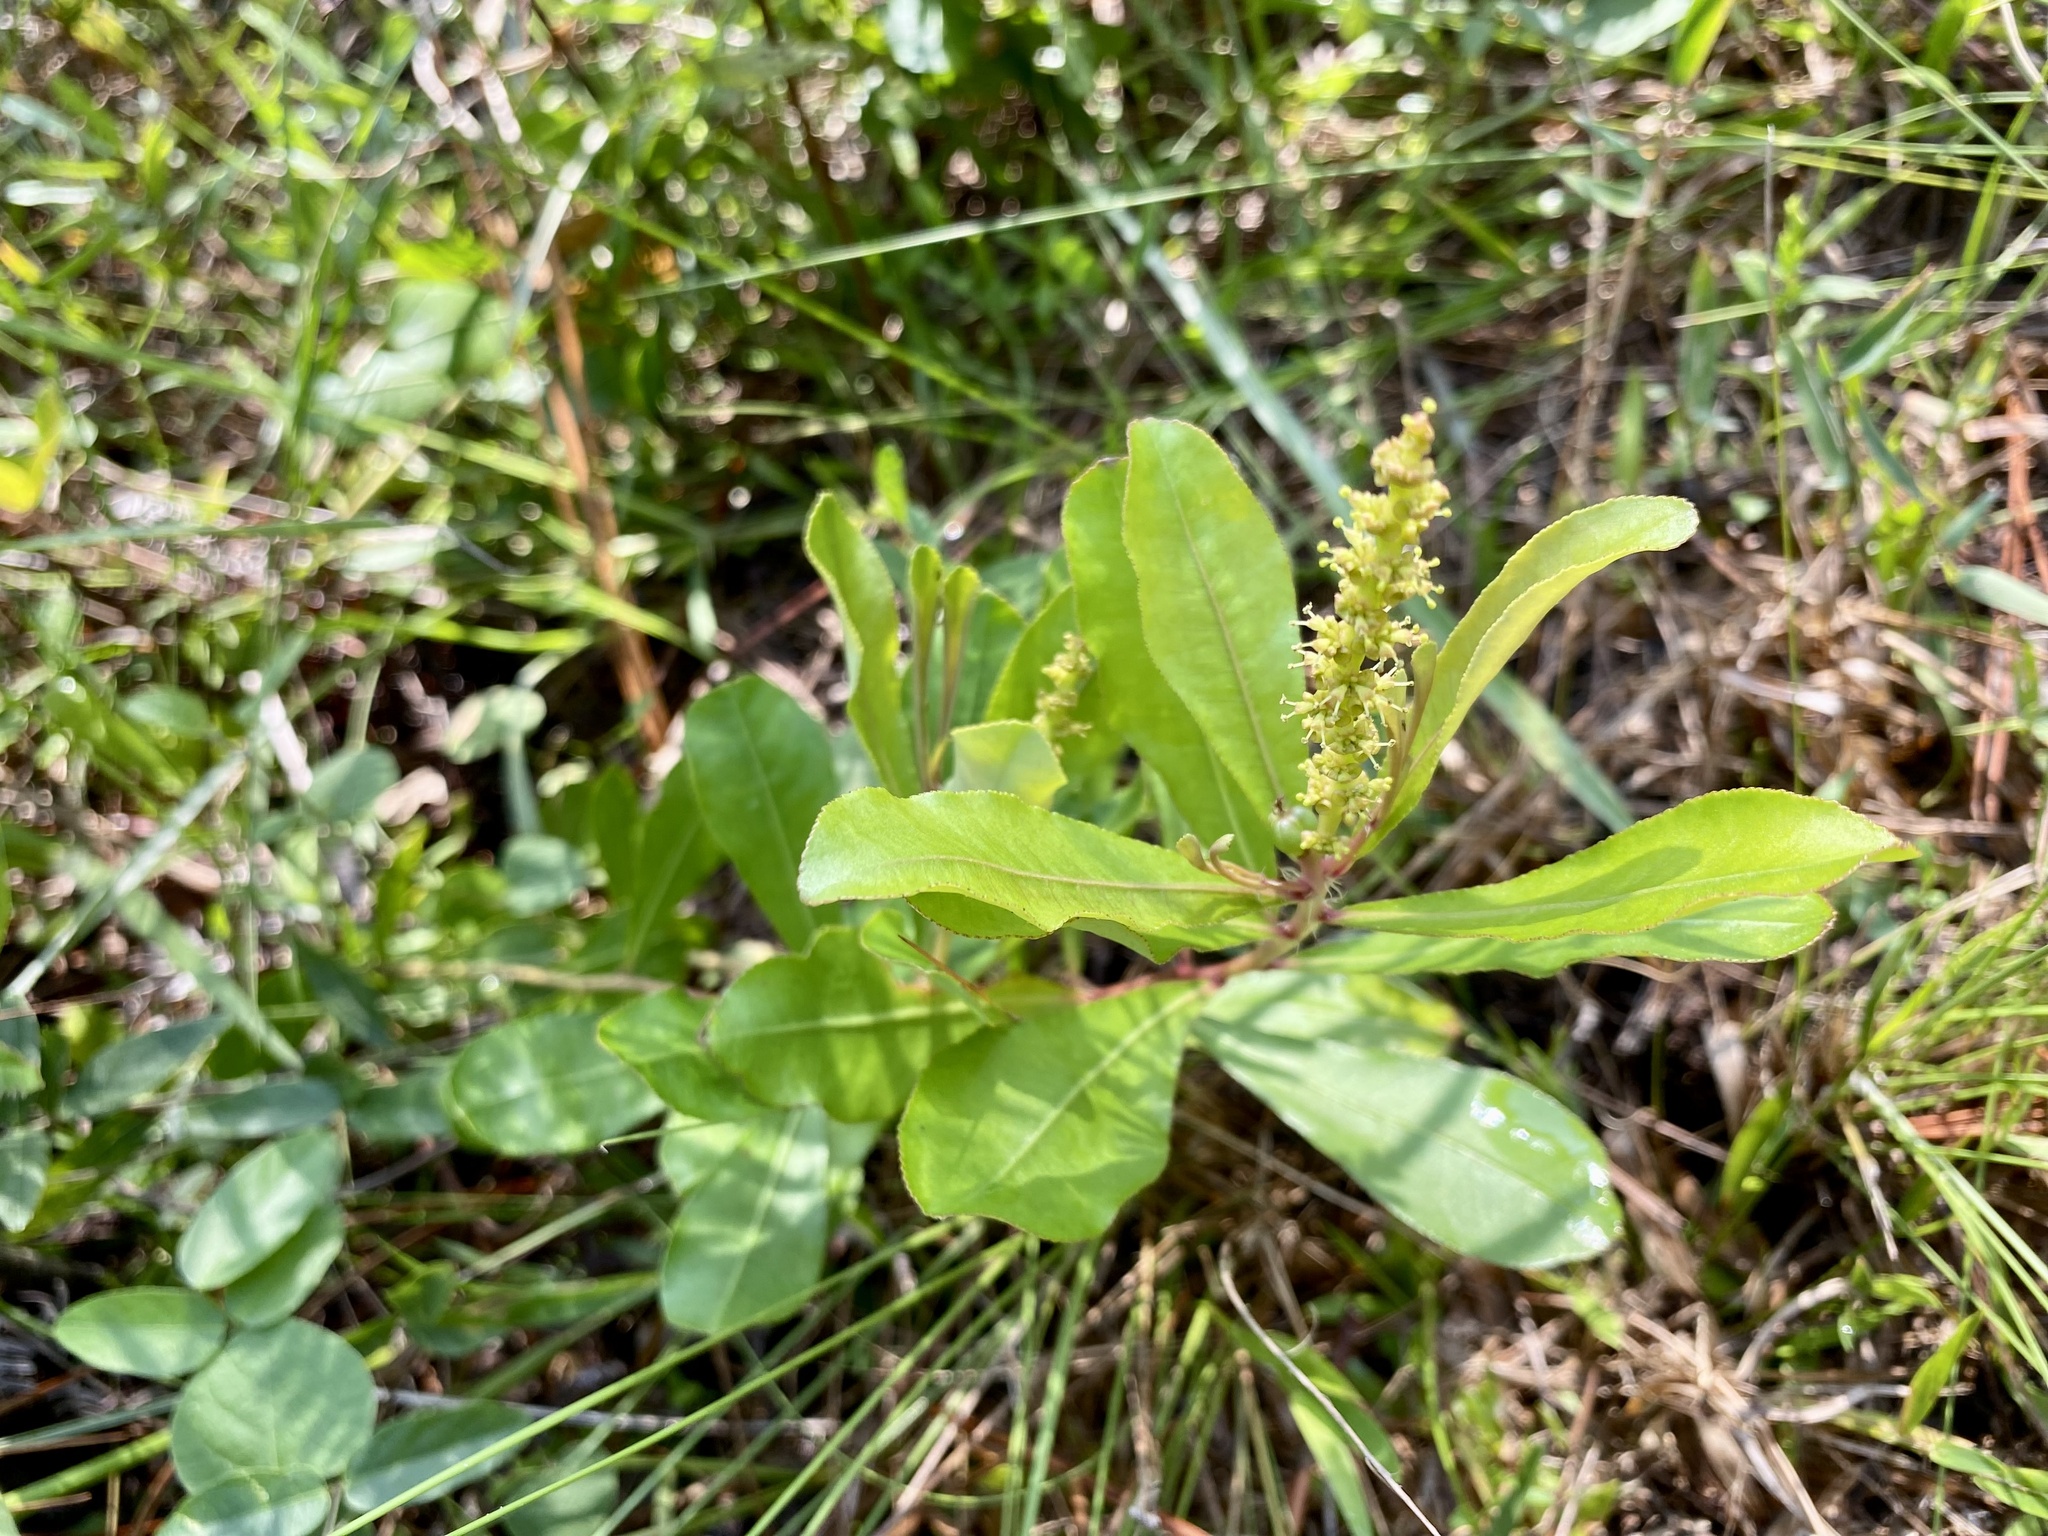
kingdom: Plantae
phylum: Tracheophyta
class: Magnoliopsida
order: Malpighiales
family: Euphorbiaceae
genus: Stillingia
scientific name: Stillingia sylvatica
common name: Queen's-delight
